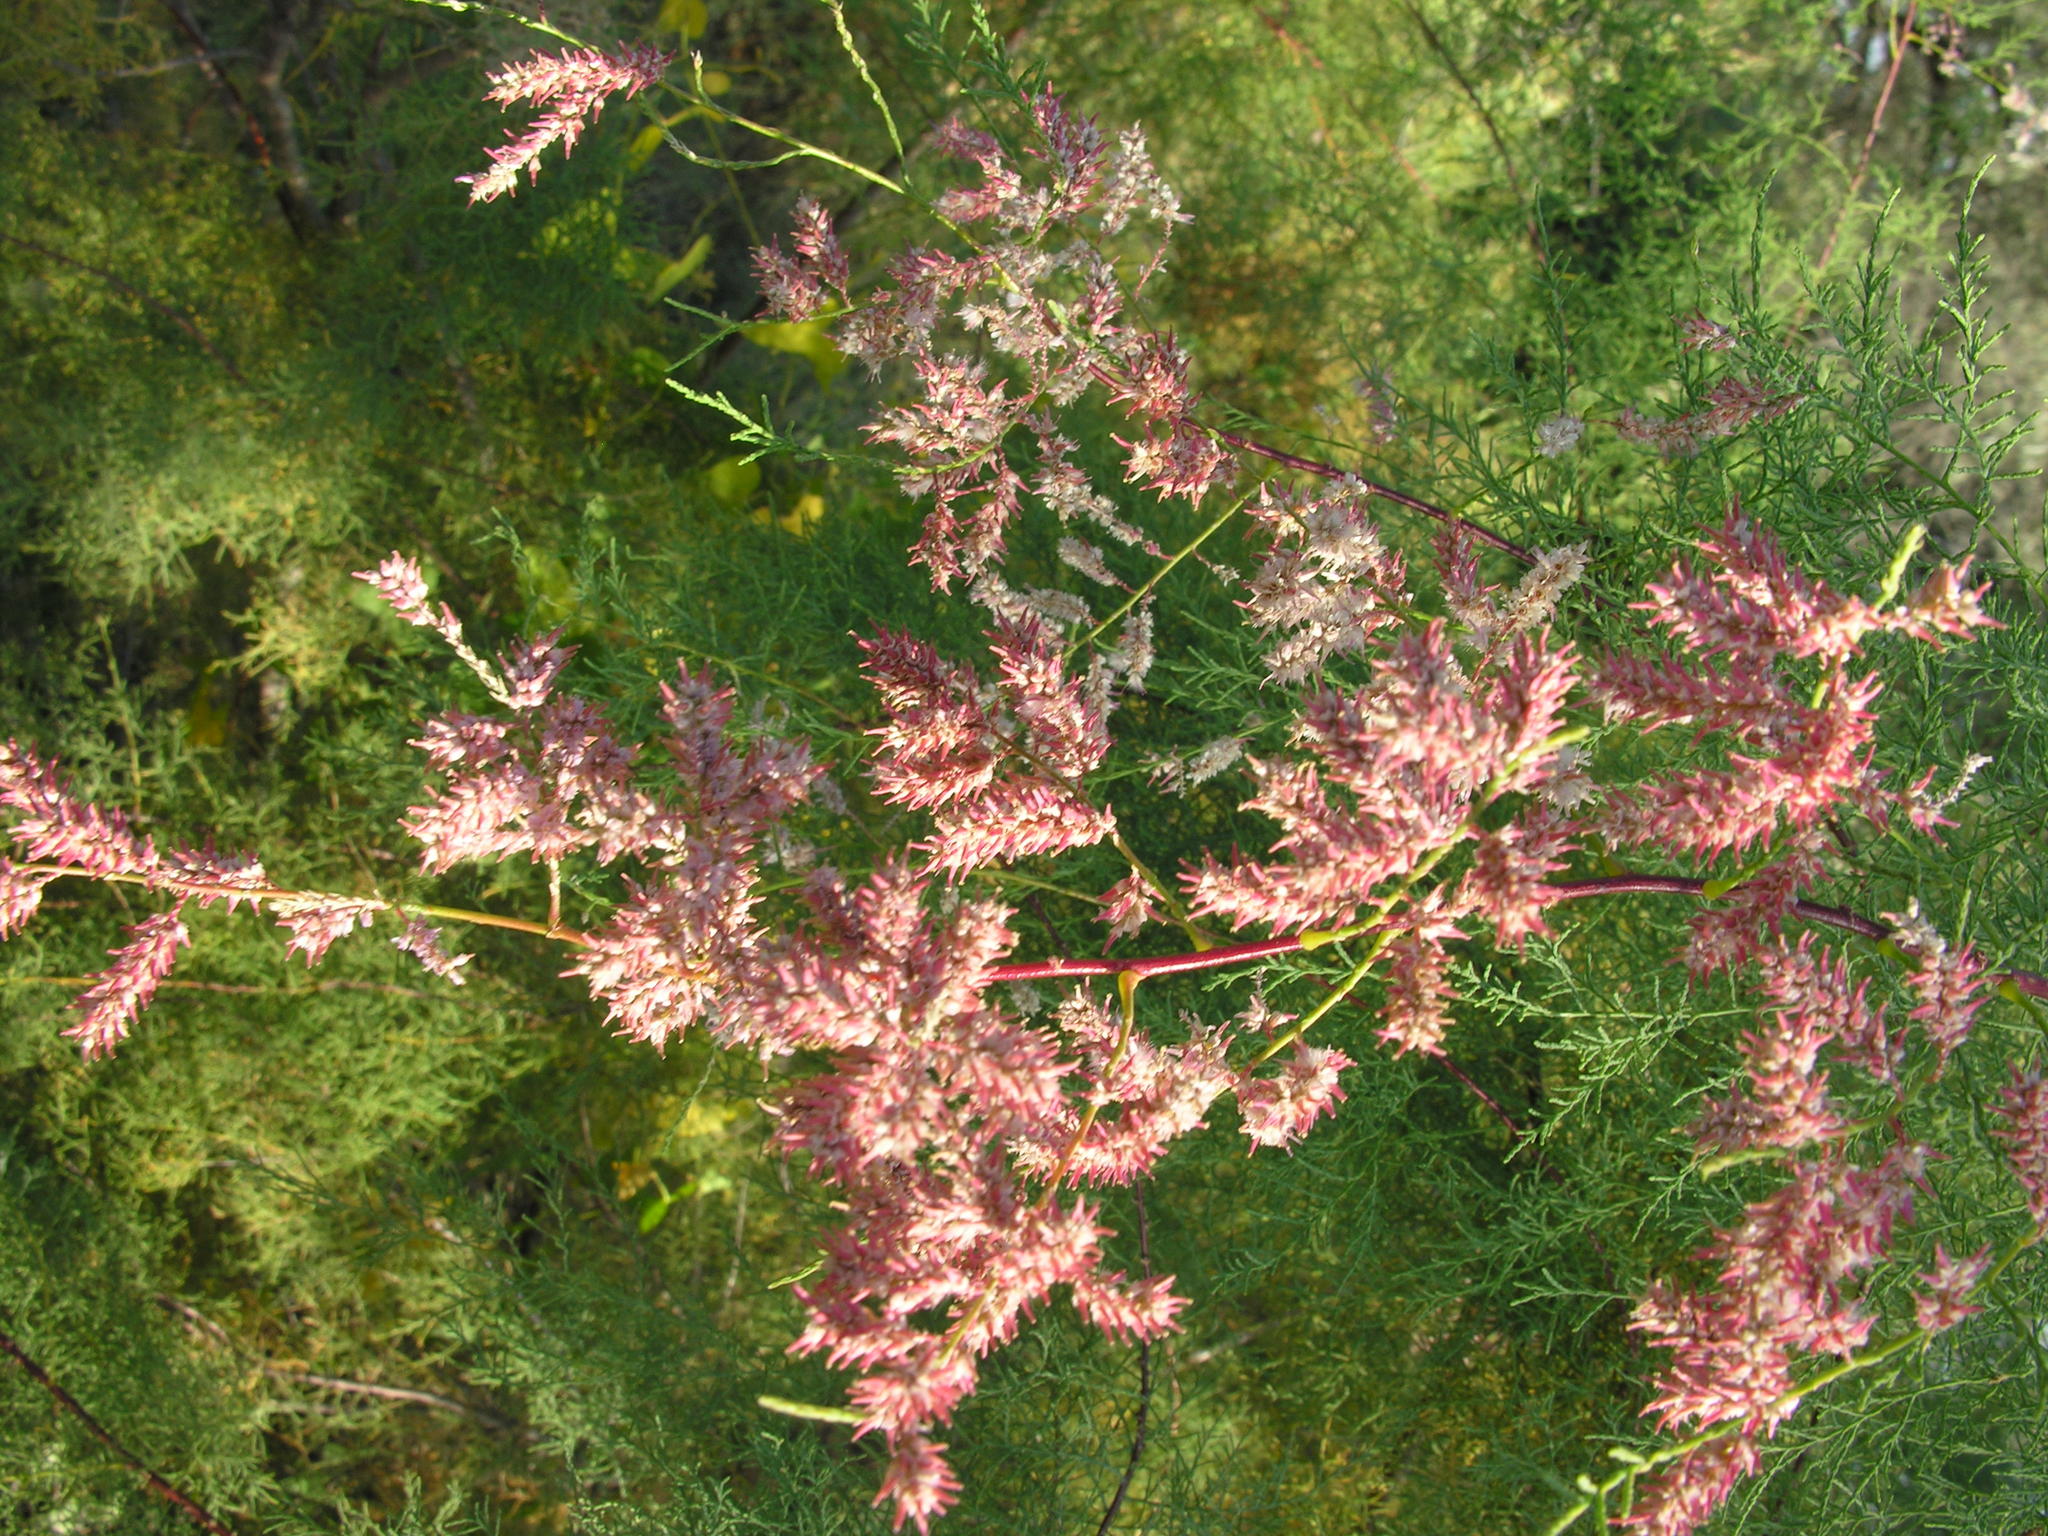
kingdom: Plantae
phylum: Tracheophyta
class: Magnoliopsida
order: Caryophyllales
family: Tamaricaceae
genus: Tamarix
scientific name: Tamarix ramosissima
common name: Pink tamarisk
